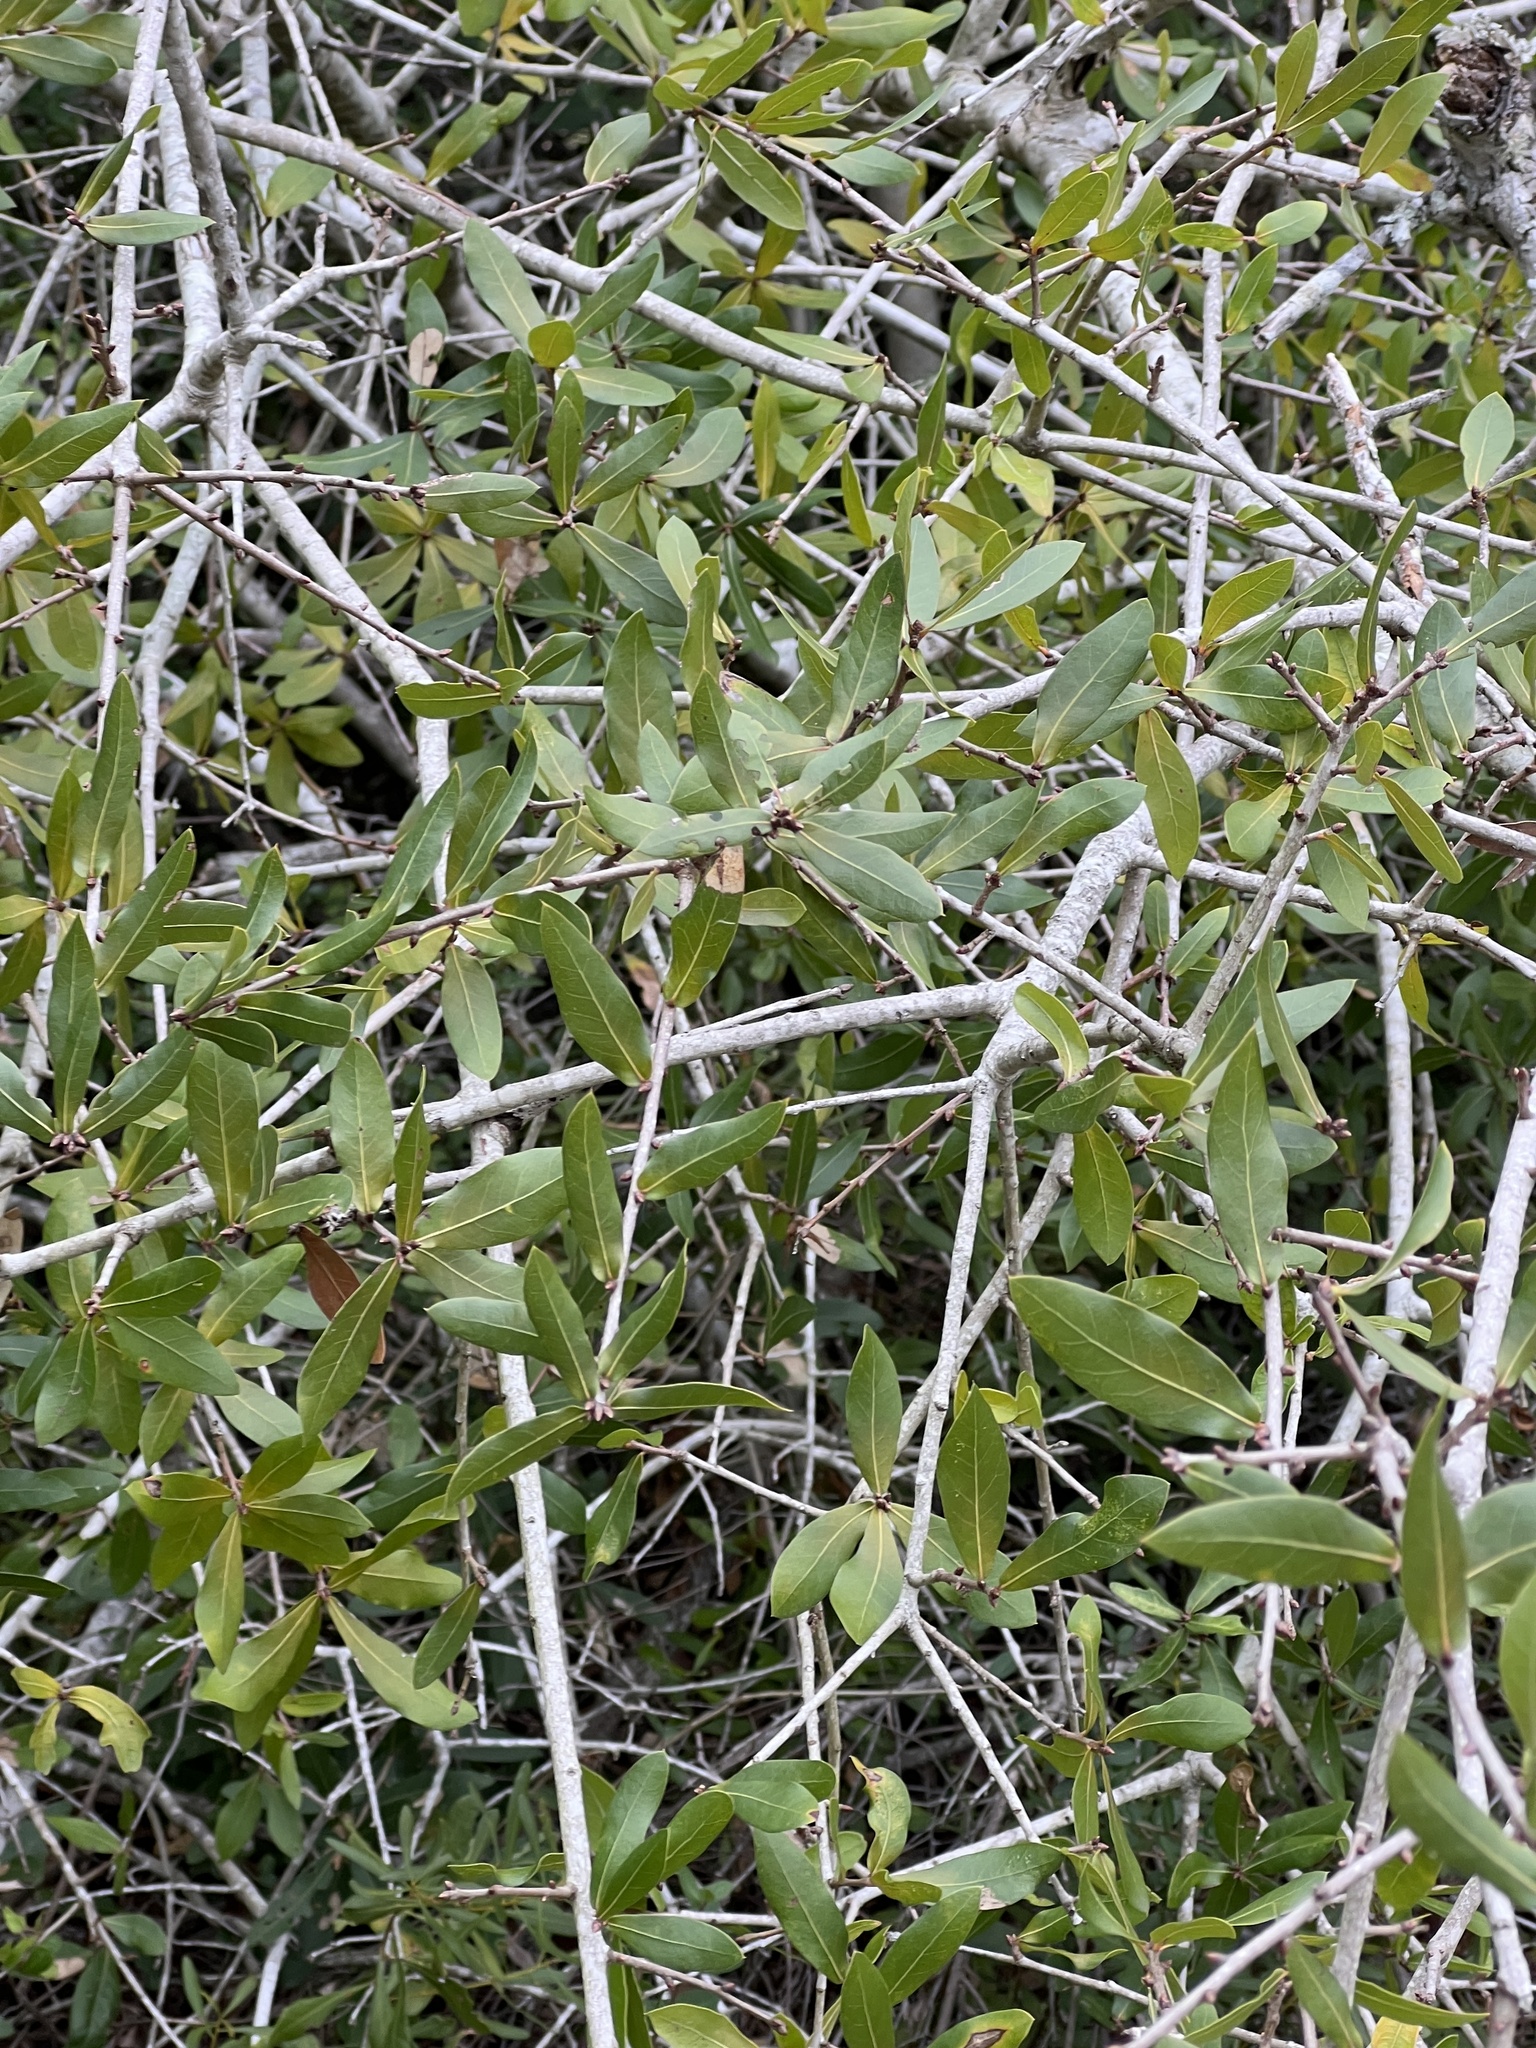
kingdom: Plantae
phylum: Tracheophyta
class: Magnoliopsida
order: Fagales
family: Fagaceae
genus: Quercus
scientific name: Quercus laurifolia
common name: Swamp laurel oak
